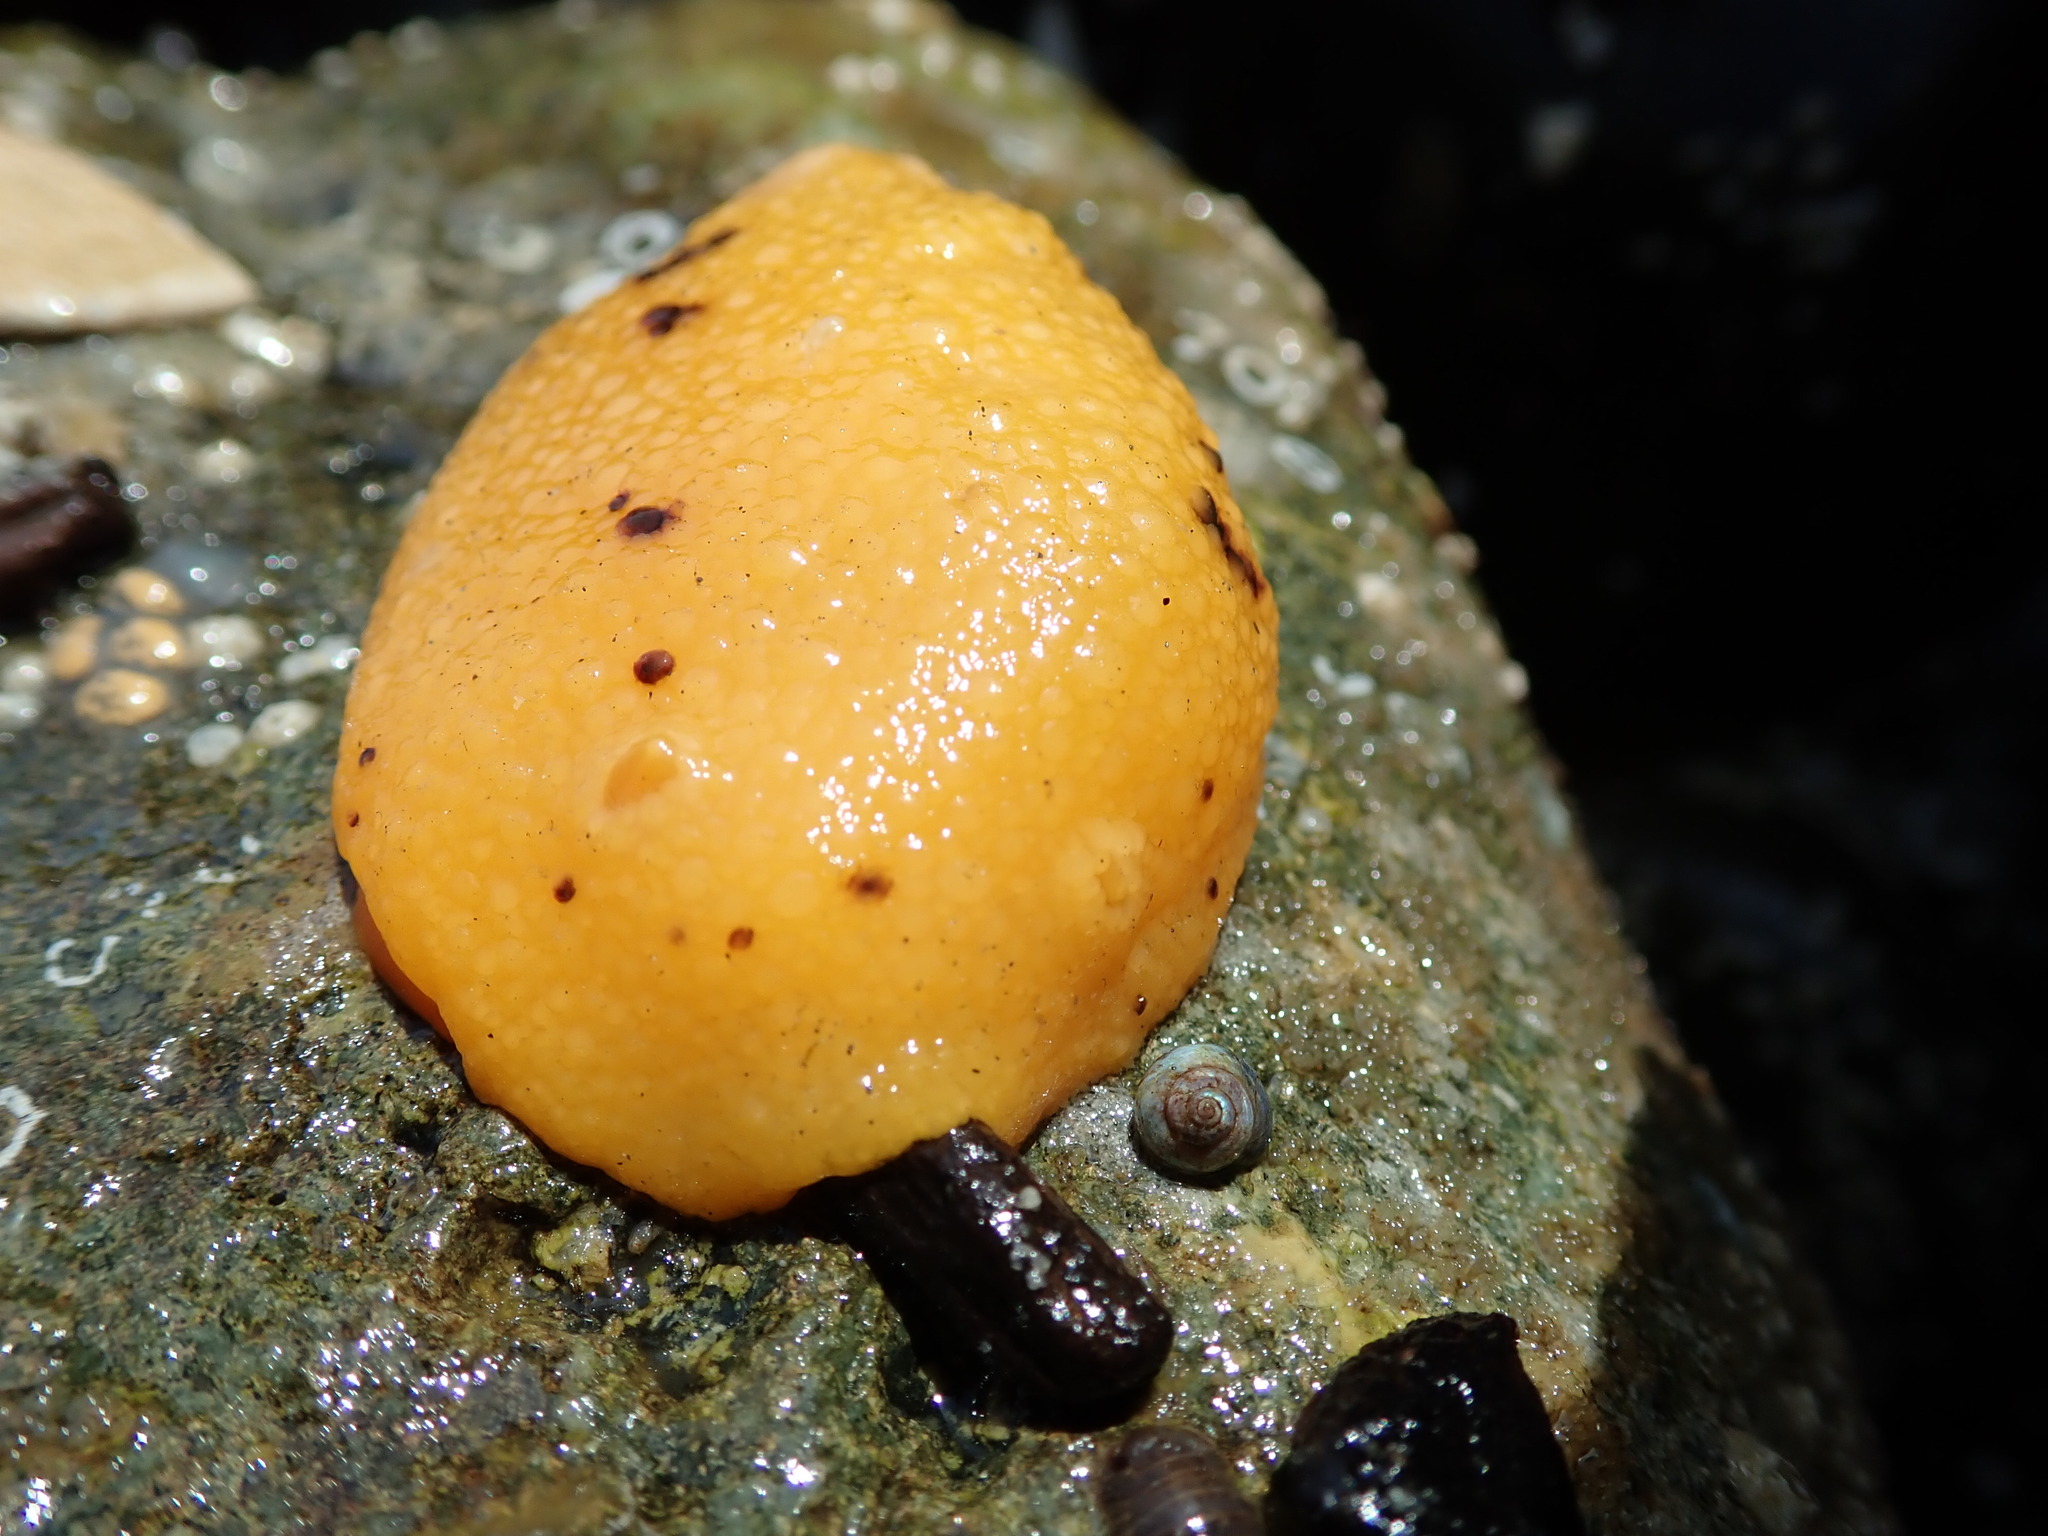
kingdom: Animalia
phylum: Mollusca
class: Gastropoda
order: Nudibranchia
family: Dorididae
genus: Doris
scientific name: Doris montereyensis
